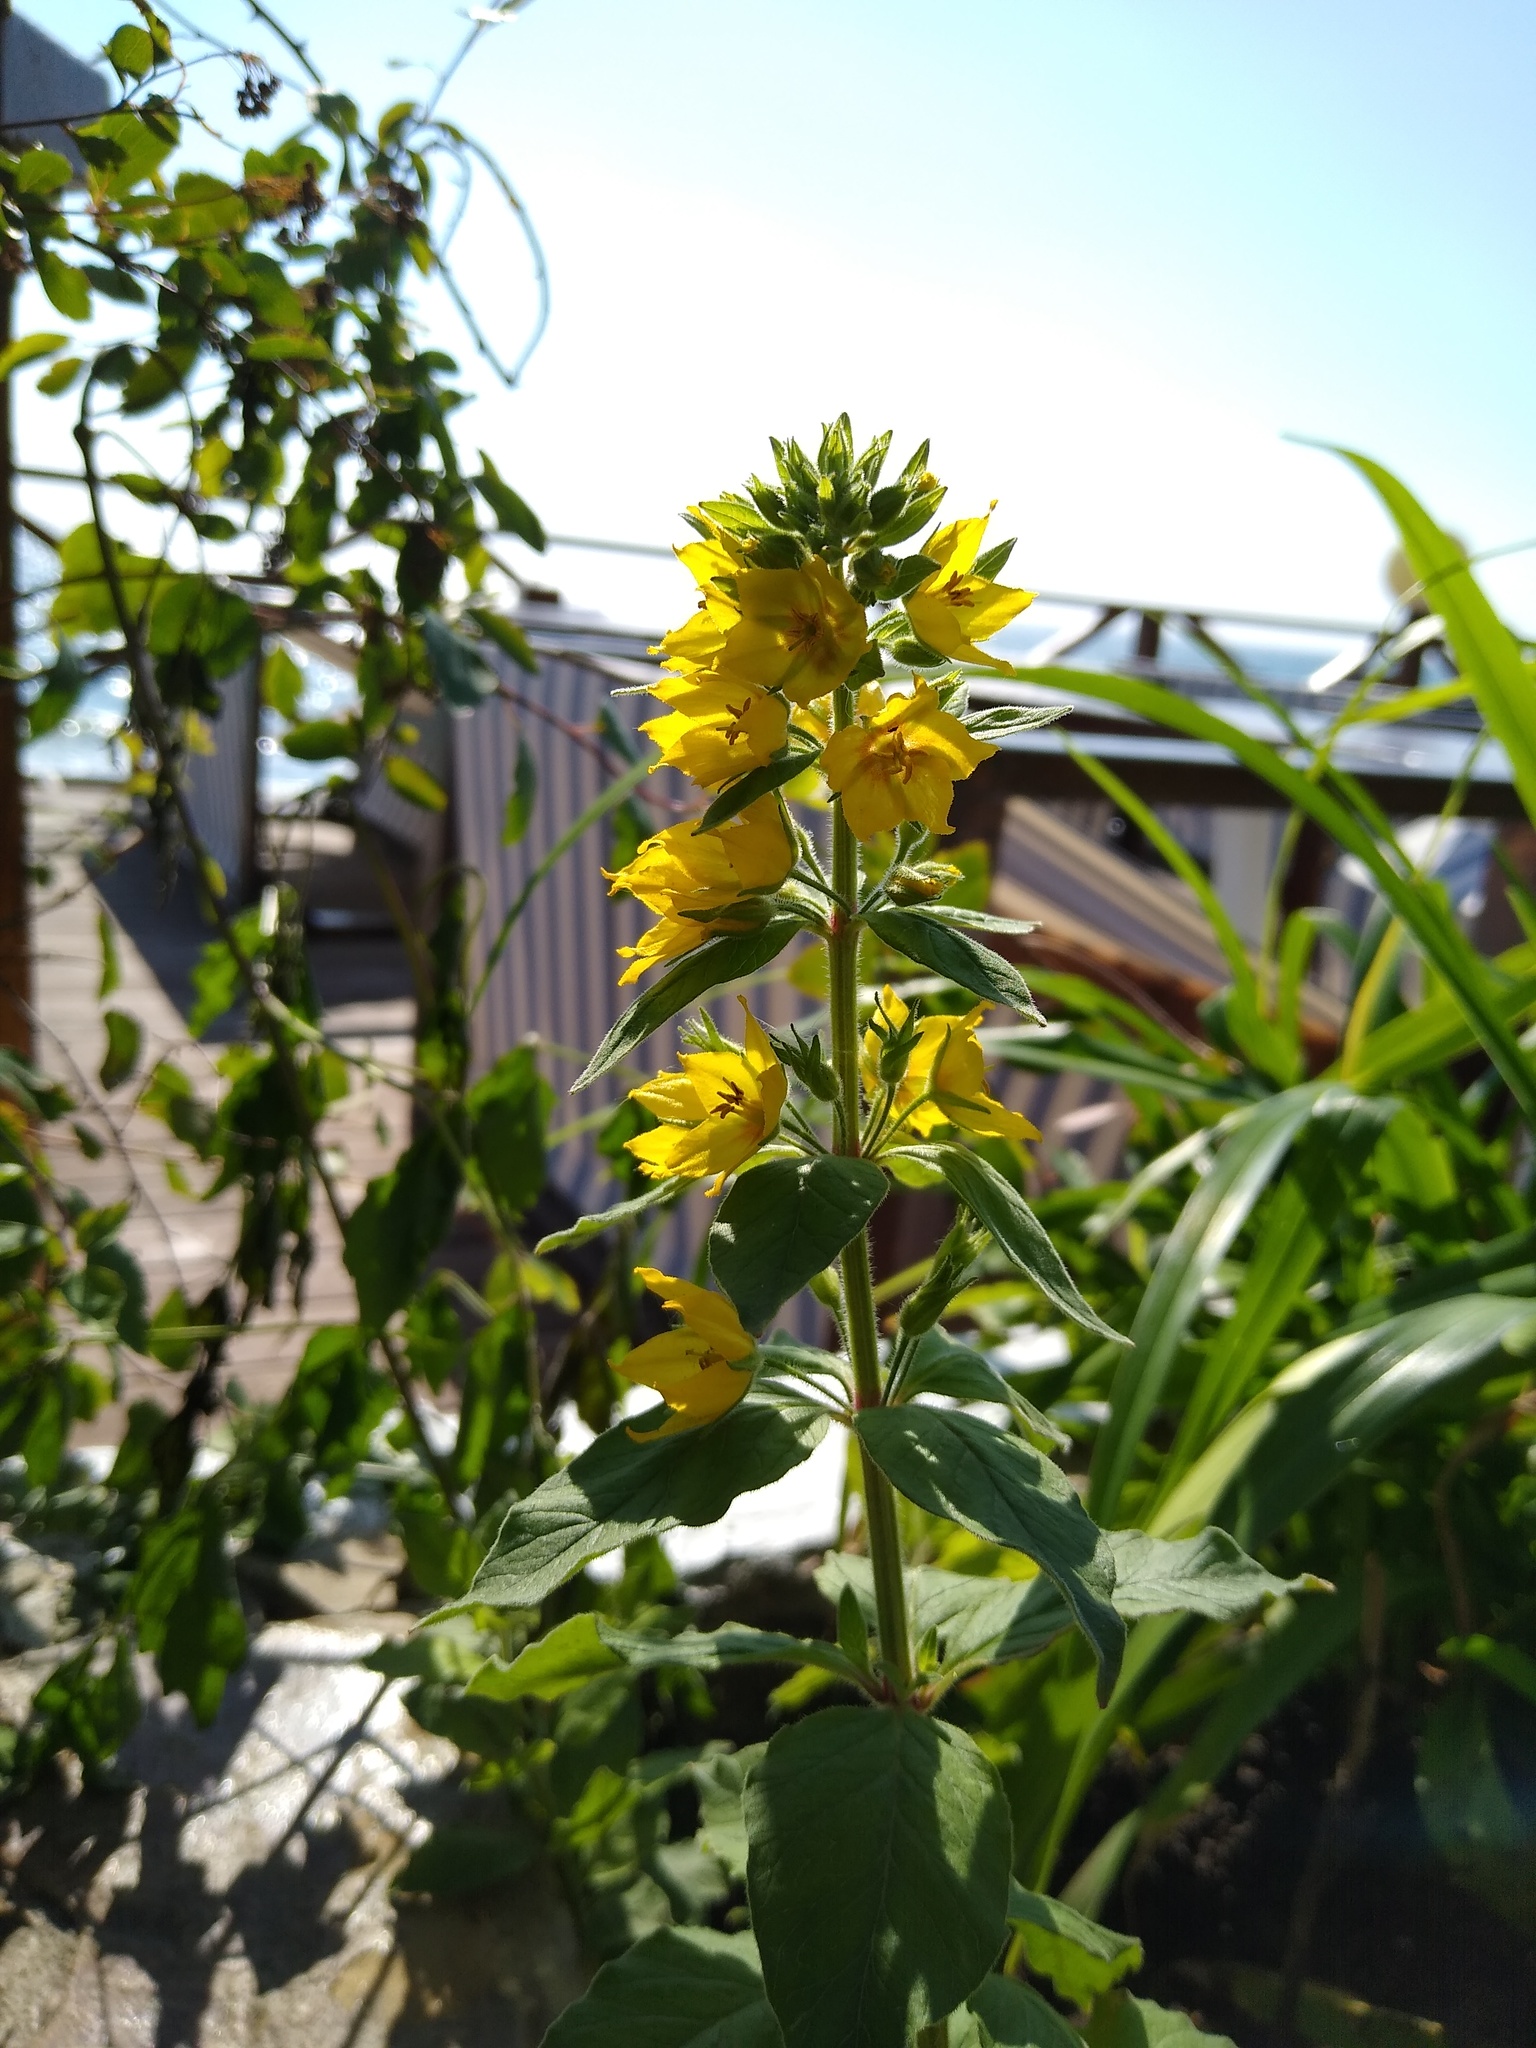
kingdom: Plantae
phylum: Tracheophyta
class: Magnoliopsida
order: Ericales
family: Primulaceae
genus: Lysimachia
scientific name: Lysimachia punctata
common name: Dotted loosestrife
